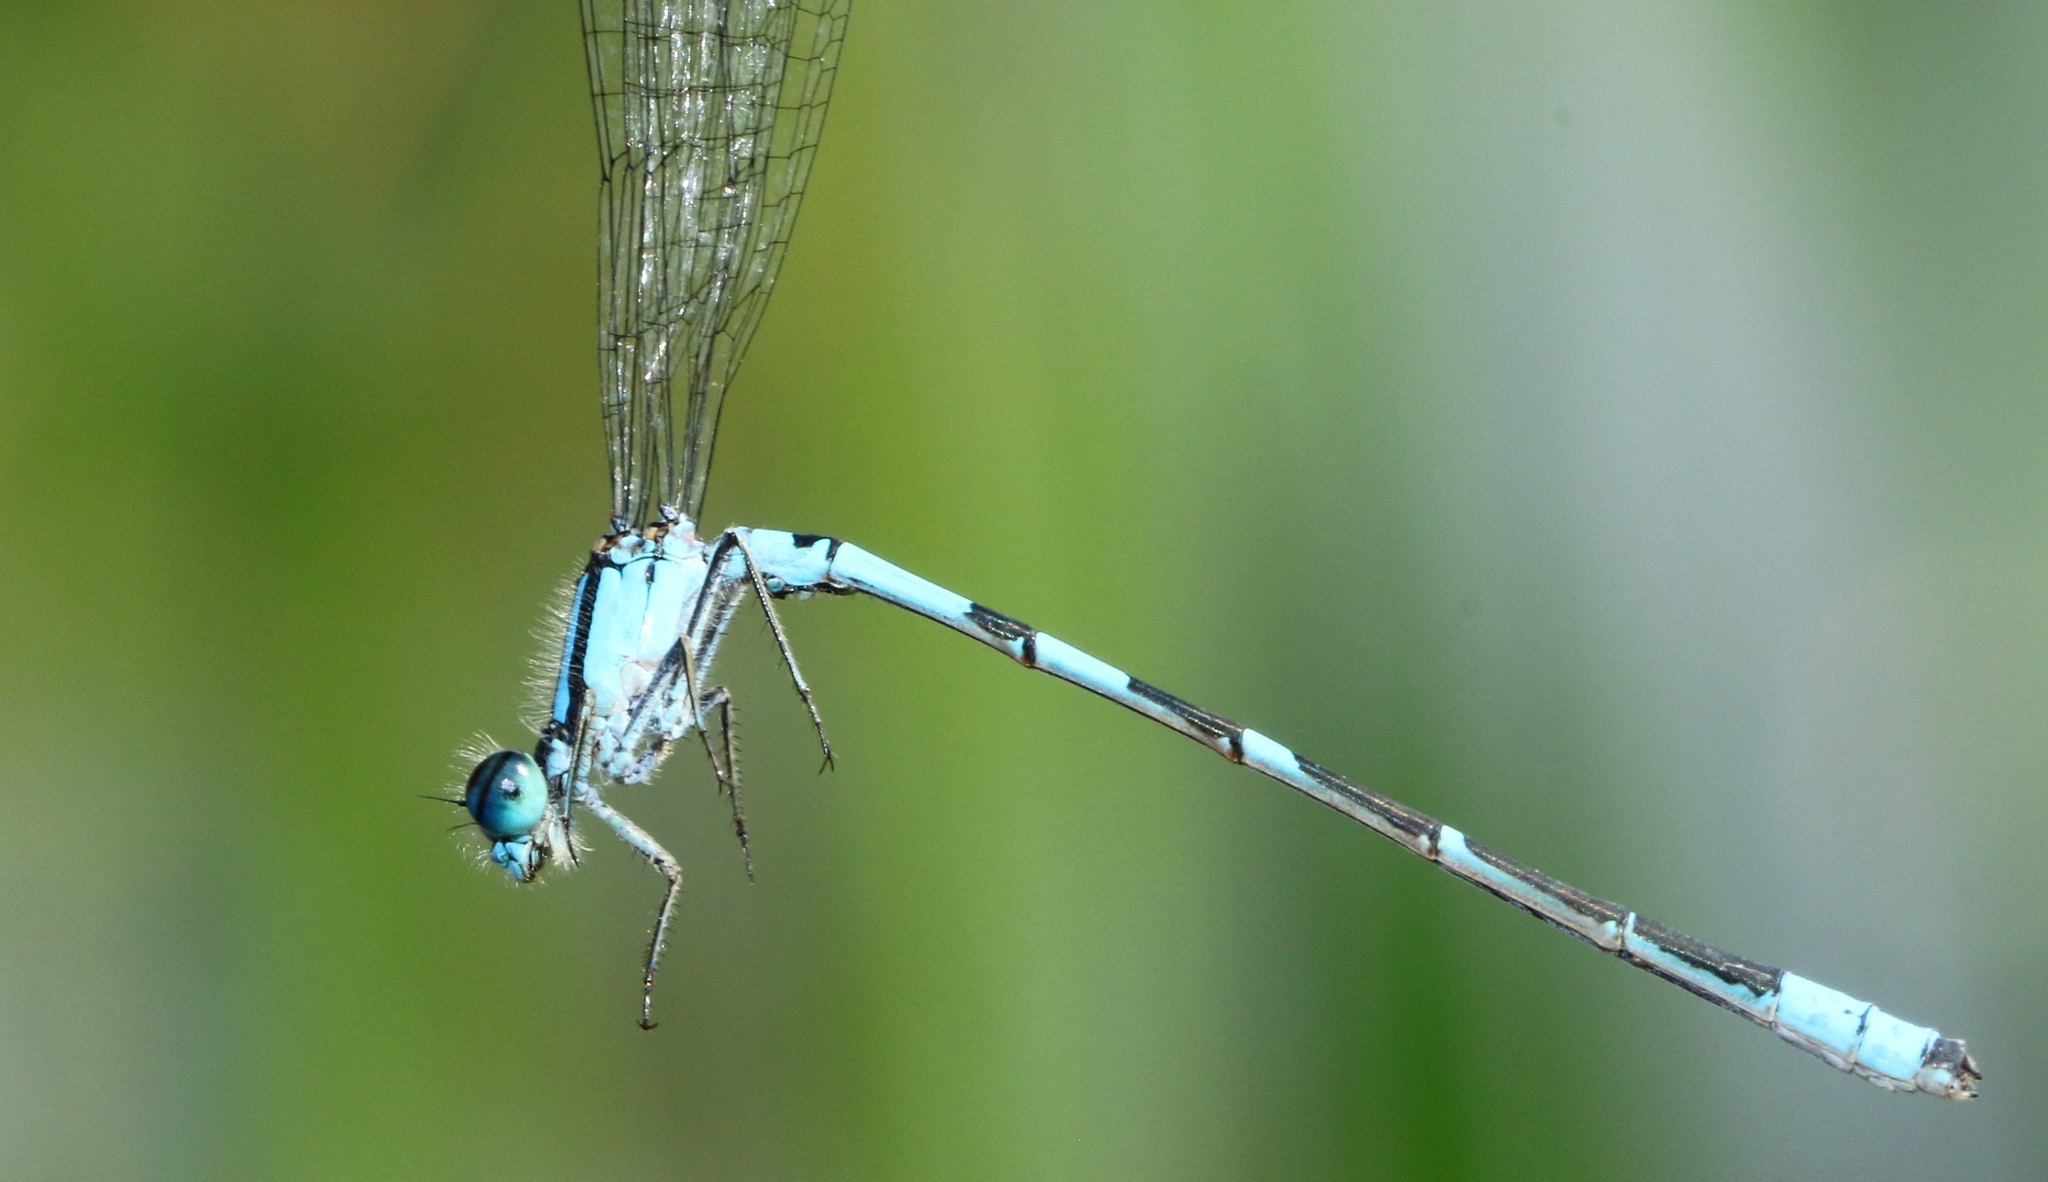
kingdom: Animalia
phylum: Arthropoda
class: Insecta
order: Odonata
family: Coenagrionidae
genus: Enallagma
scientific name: Enallagma hageni
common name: Hagen's bluet
